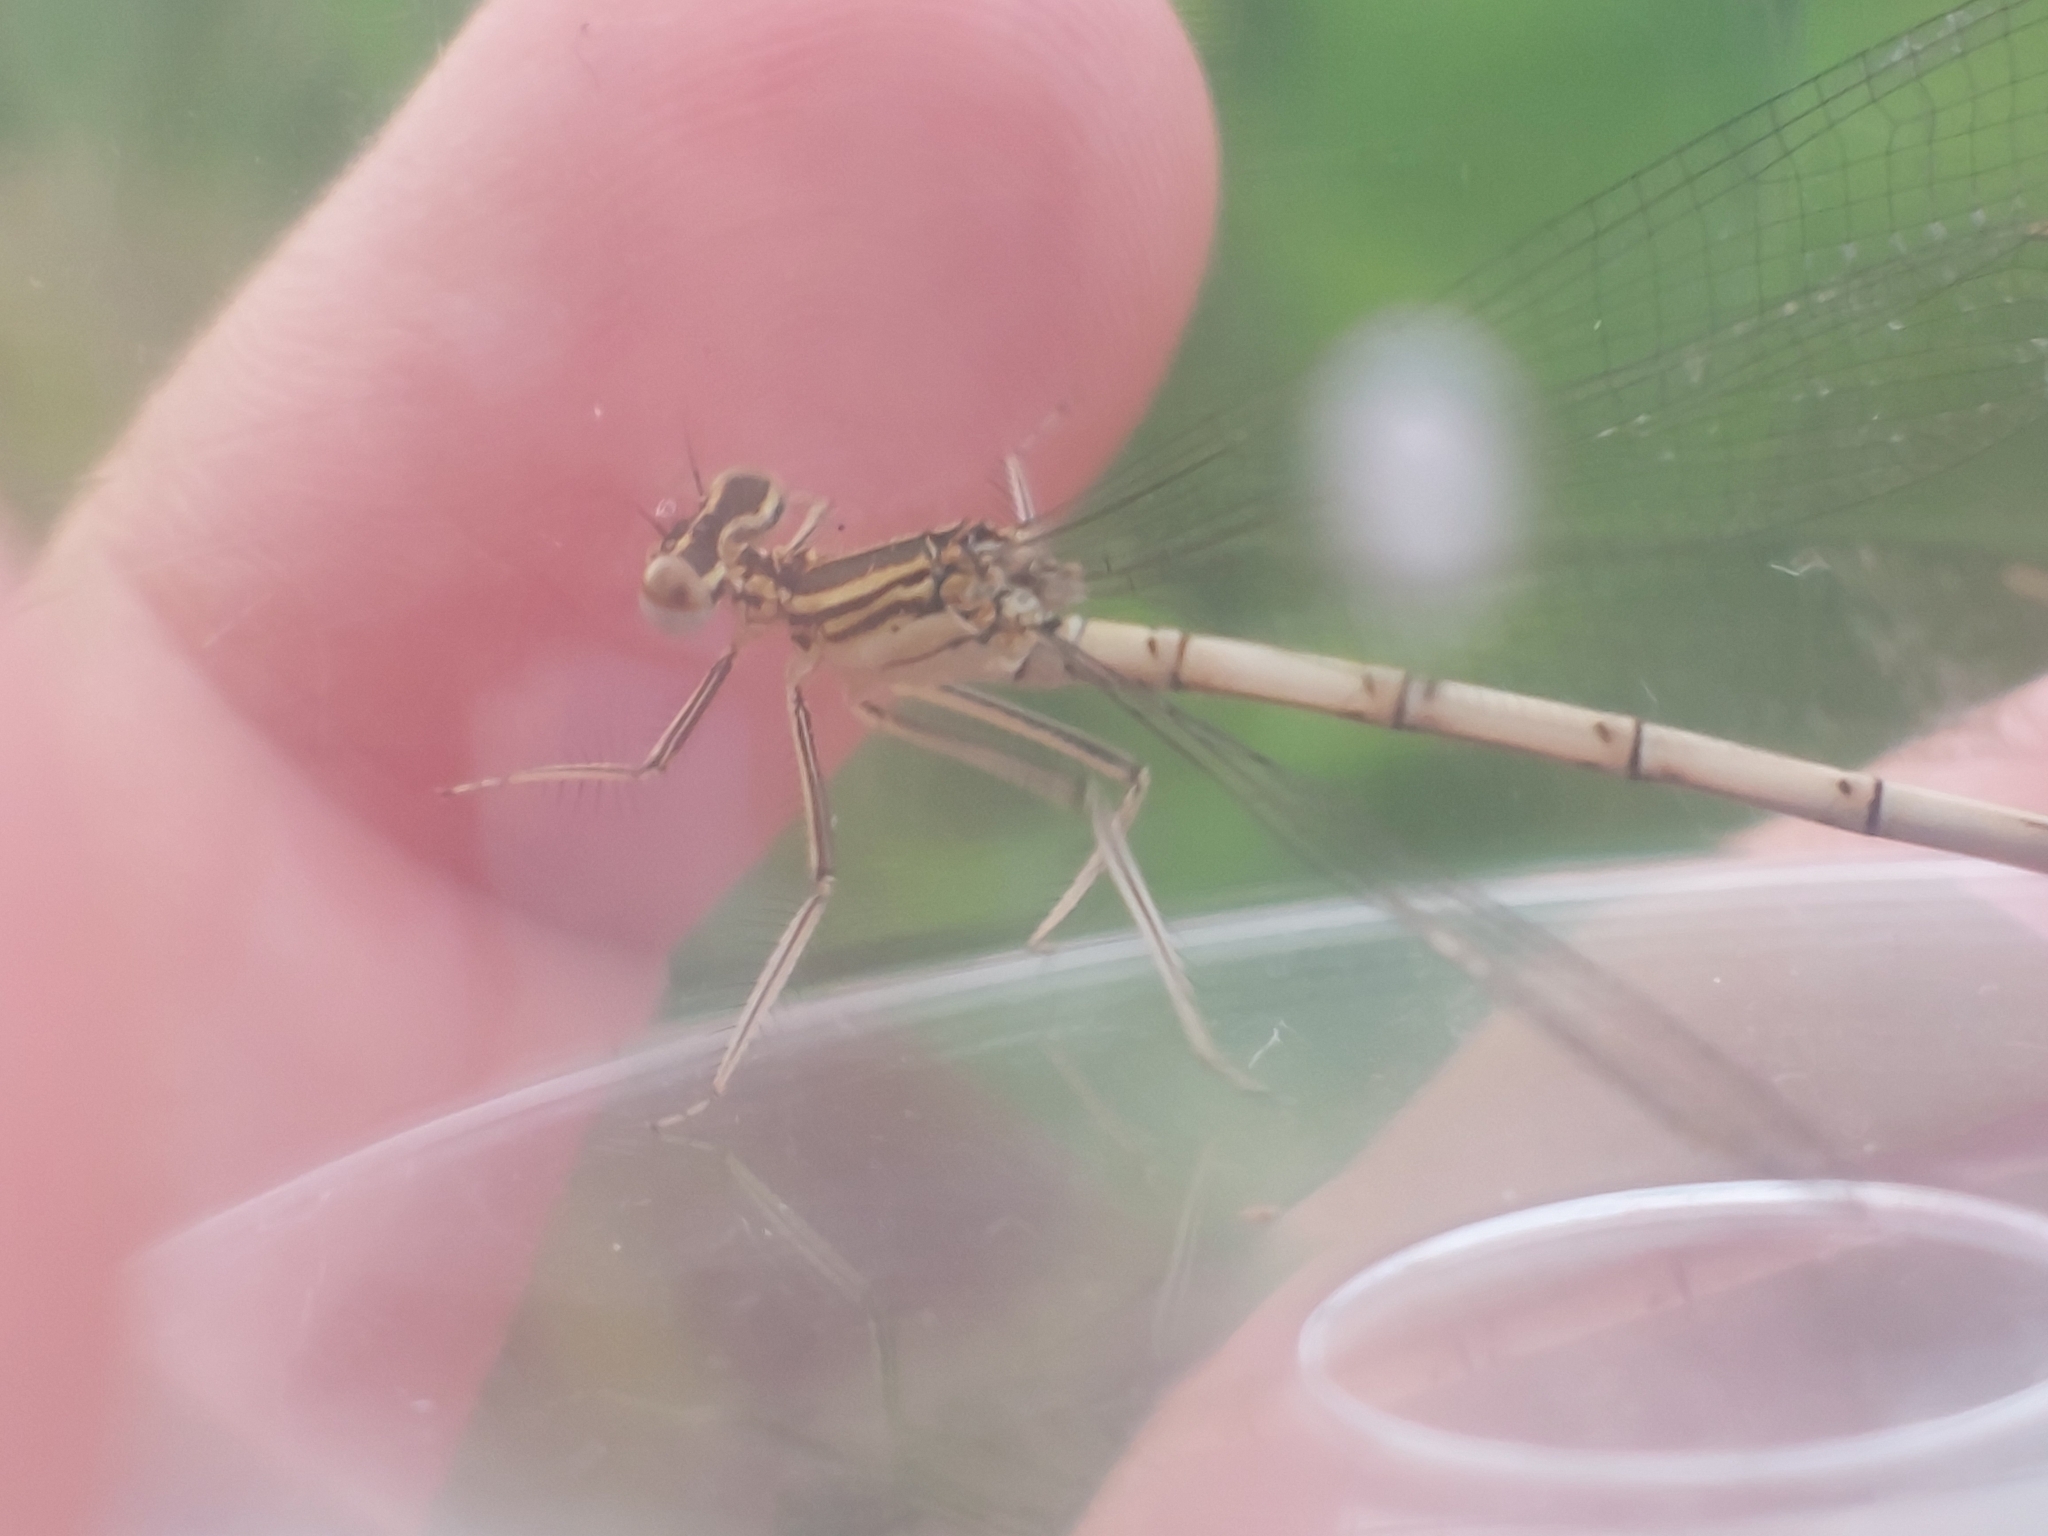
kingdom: Animalia
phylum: Arthropoda
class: Insecta
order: Odonata
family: Platycnemididae
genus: Platycnemis
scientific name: Platycnemis pennipes
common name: White-legged damselfly
